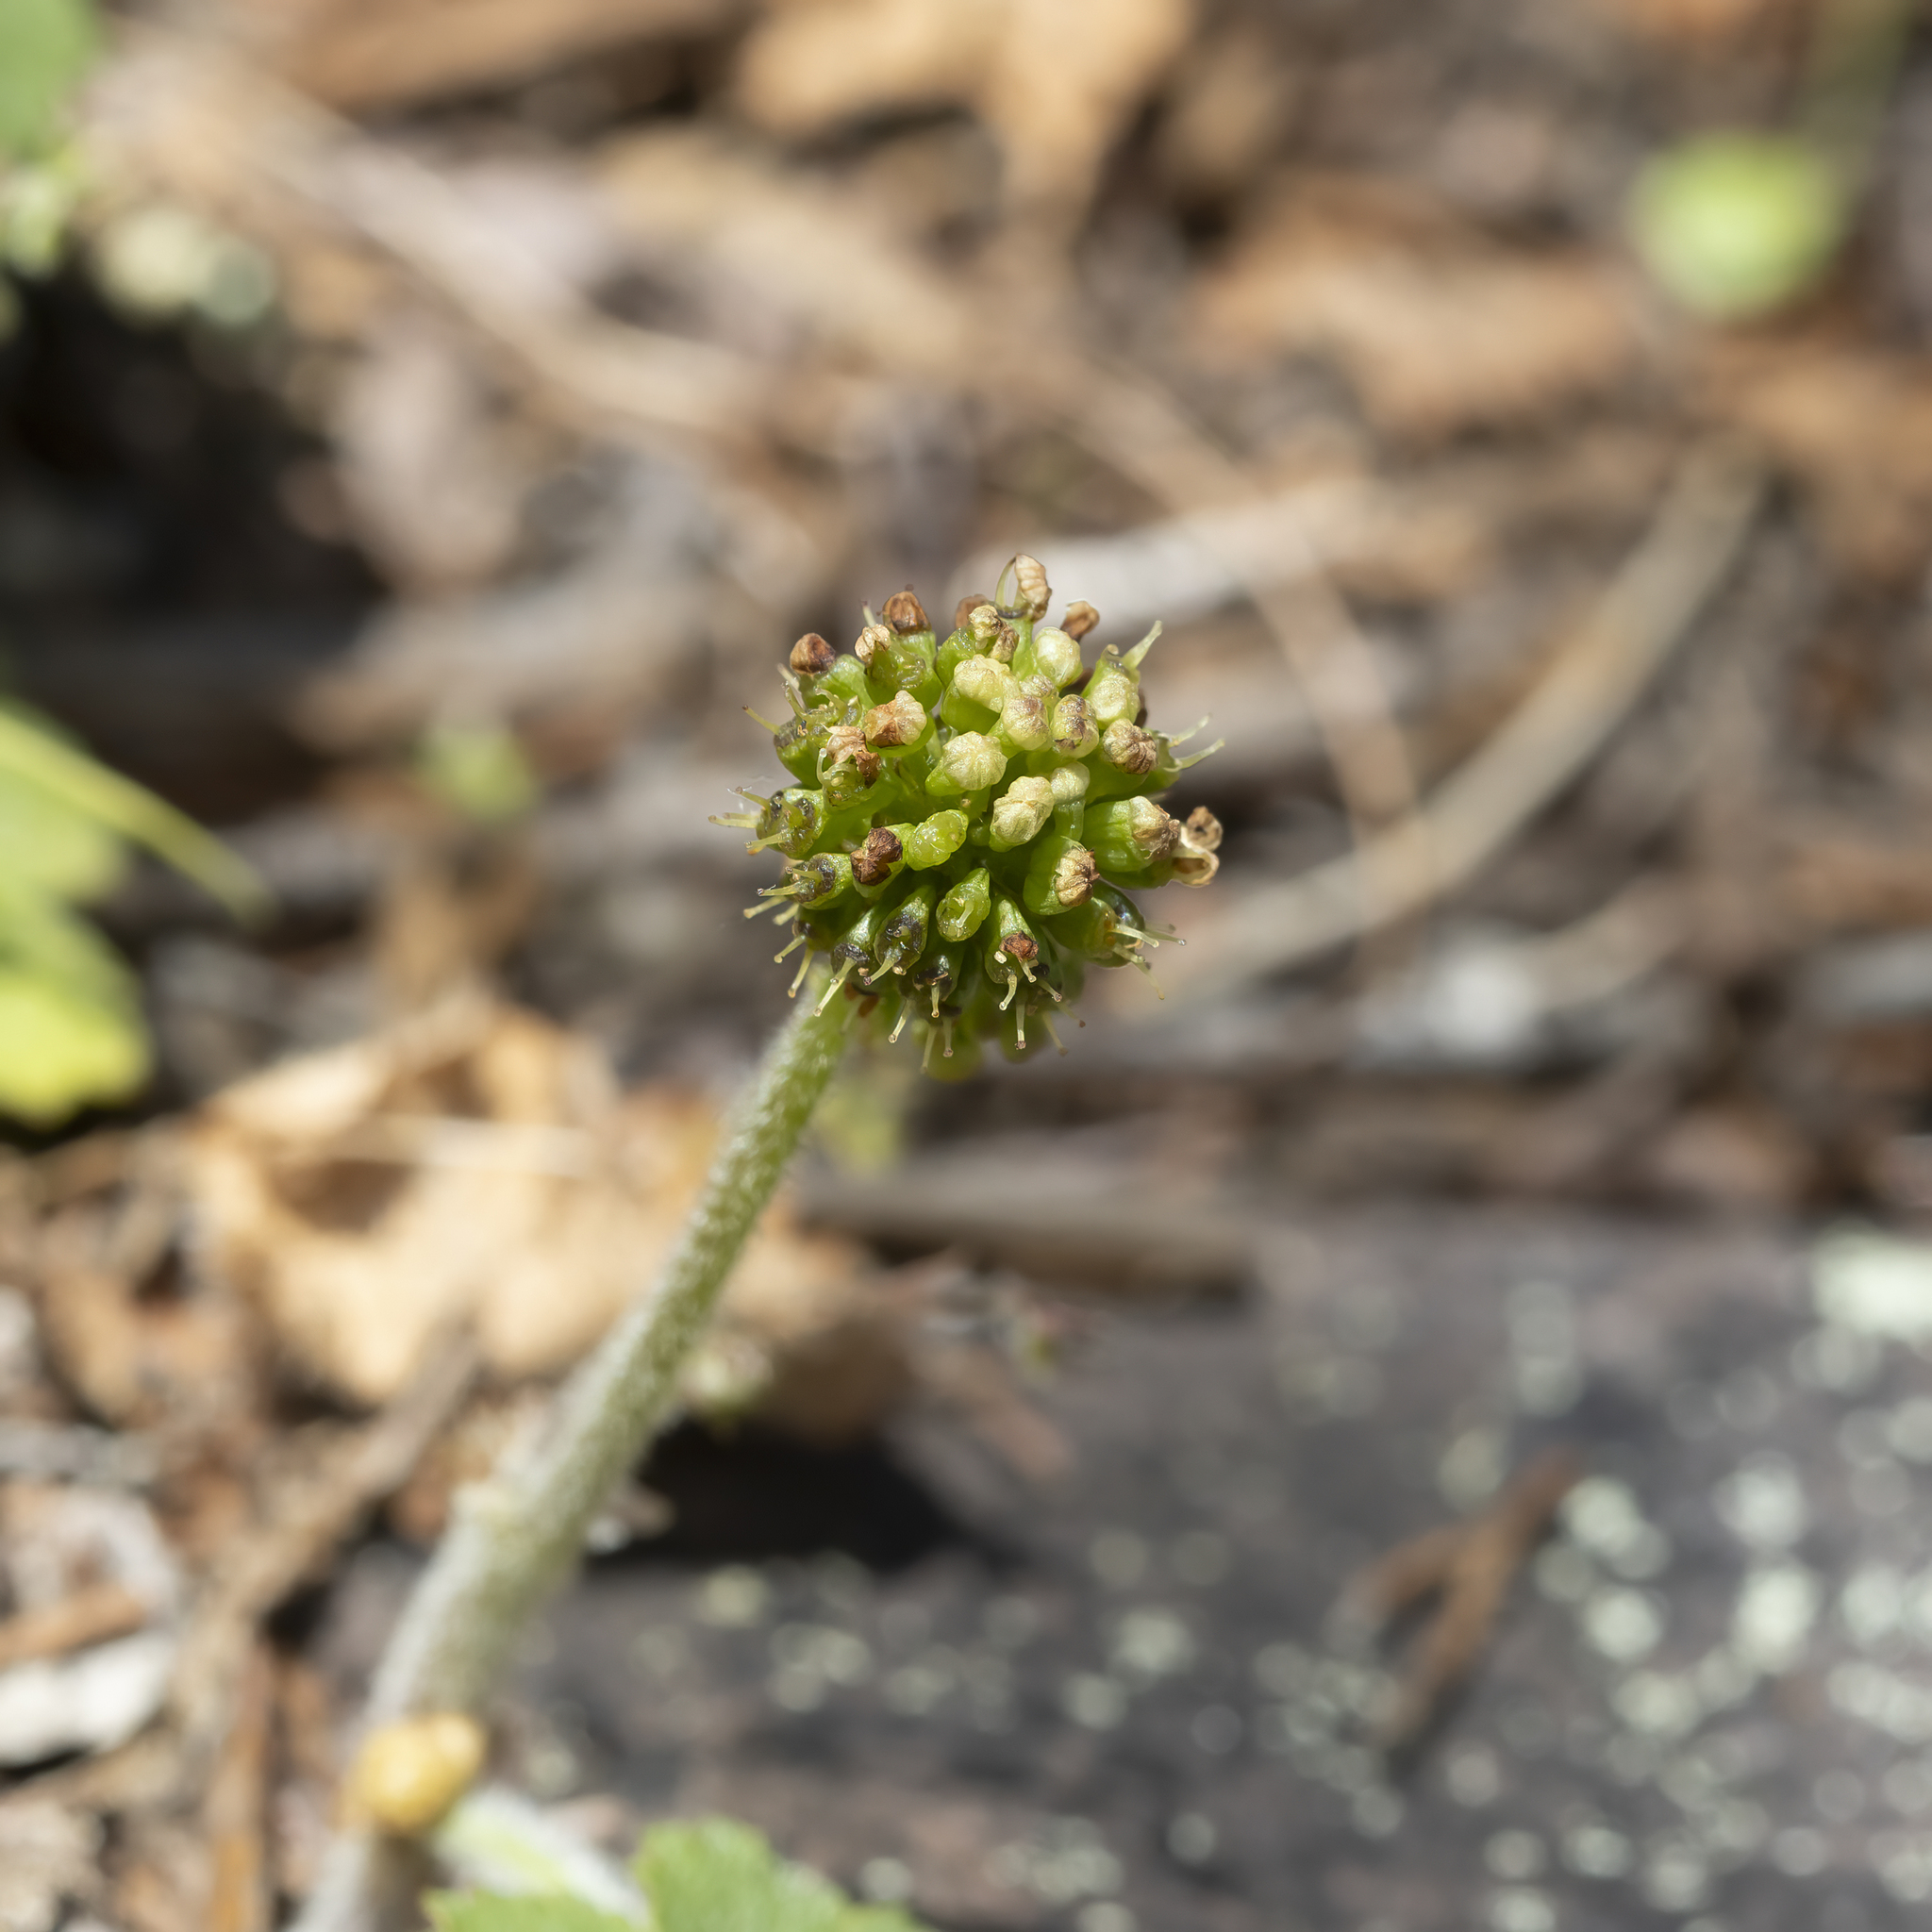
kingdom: Plantae
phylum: Tracheophyta
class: Magnoliopsida
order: Apiales
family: Araliaceae
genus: Hydrocotyle
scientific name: Hydrocotyle laxiflora
